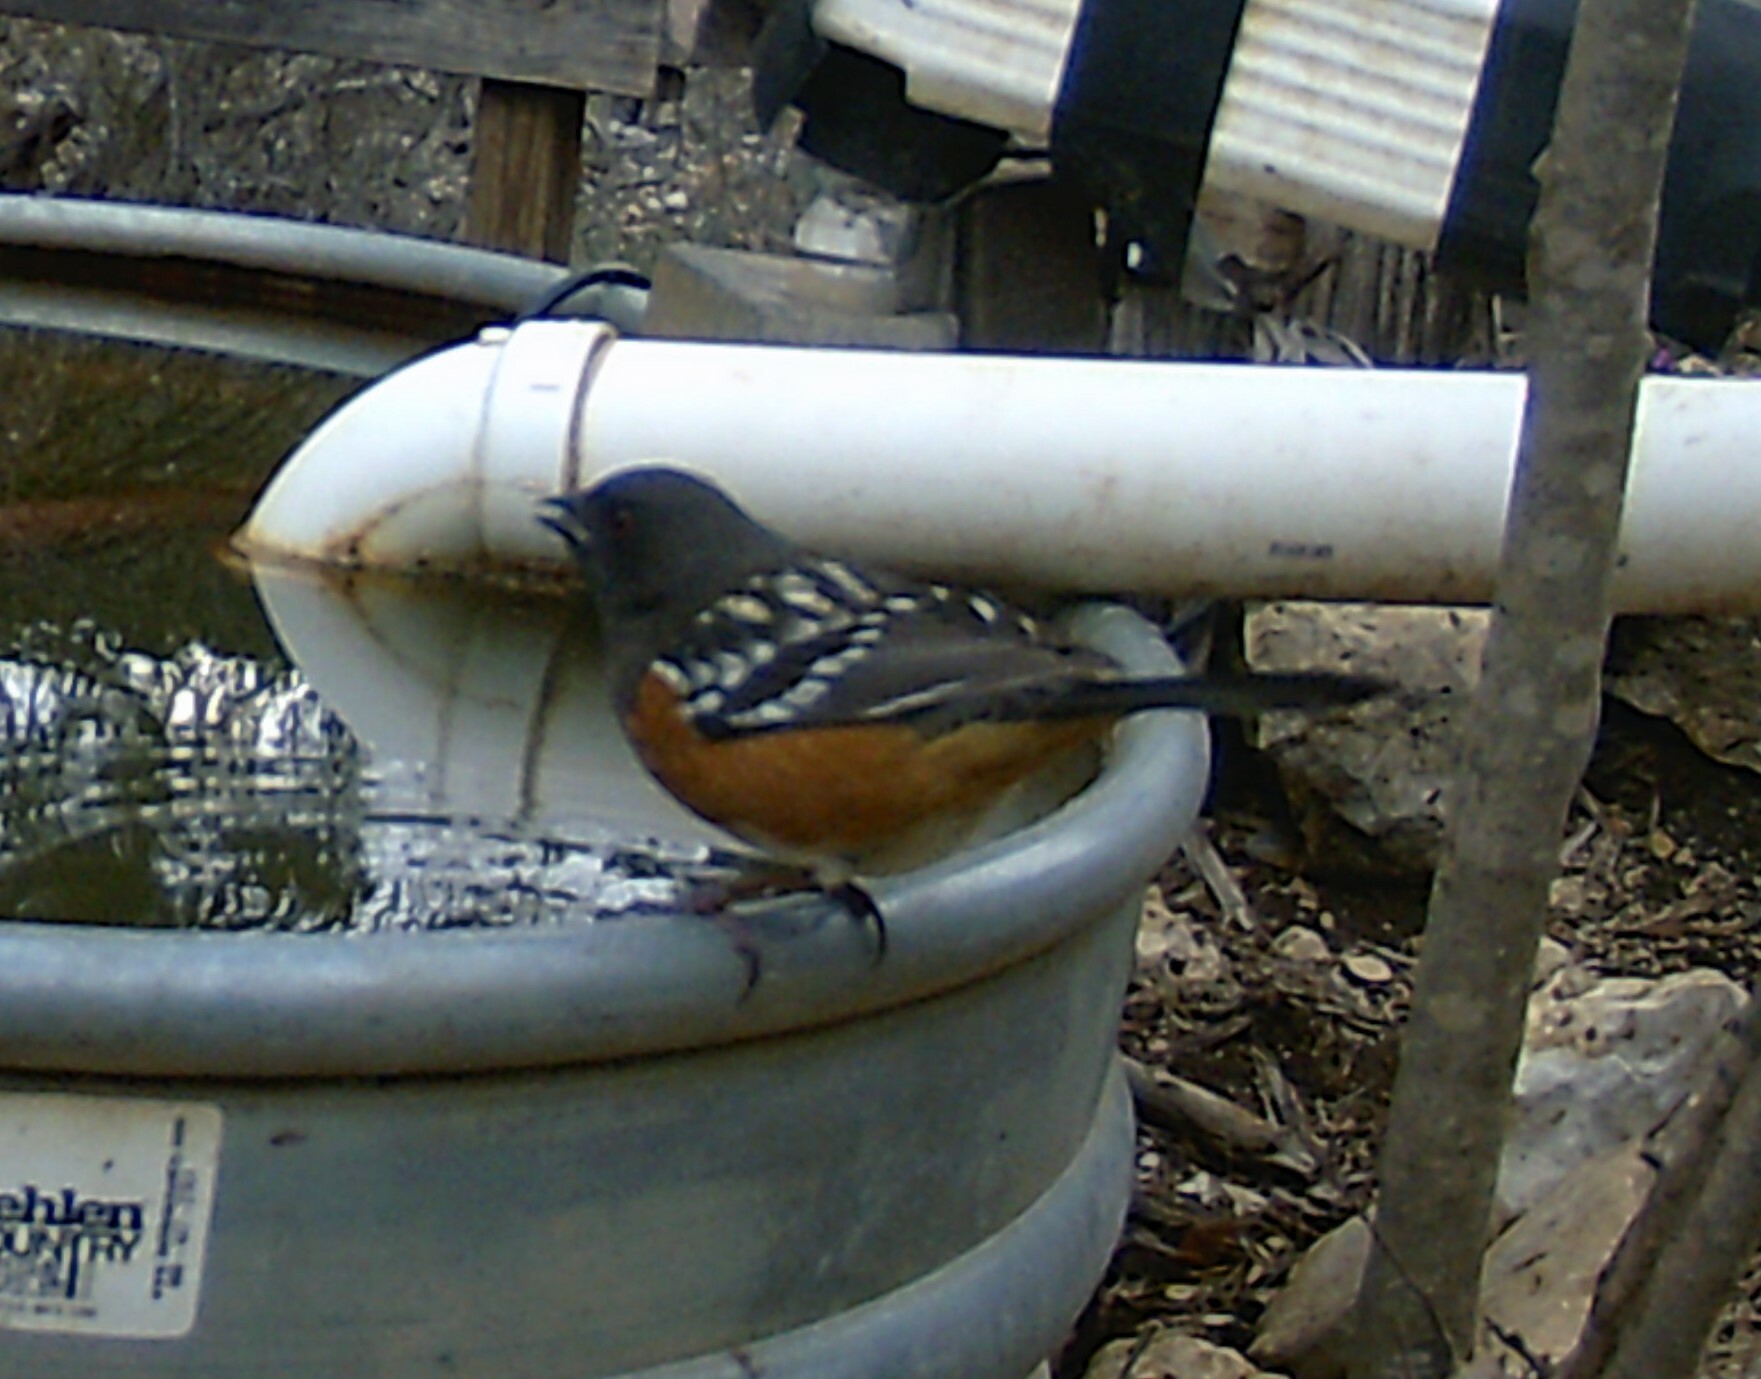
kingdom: Animalia
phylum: Chordata
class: Aves
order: Passeriformes
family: Passerellidae
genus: Pipilo
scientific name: Pipilo maculatus
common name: Spotted towhee
